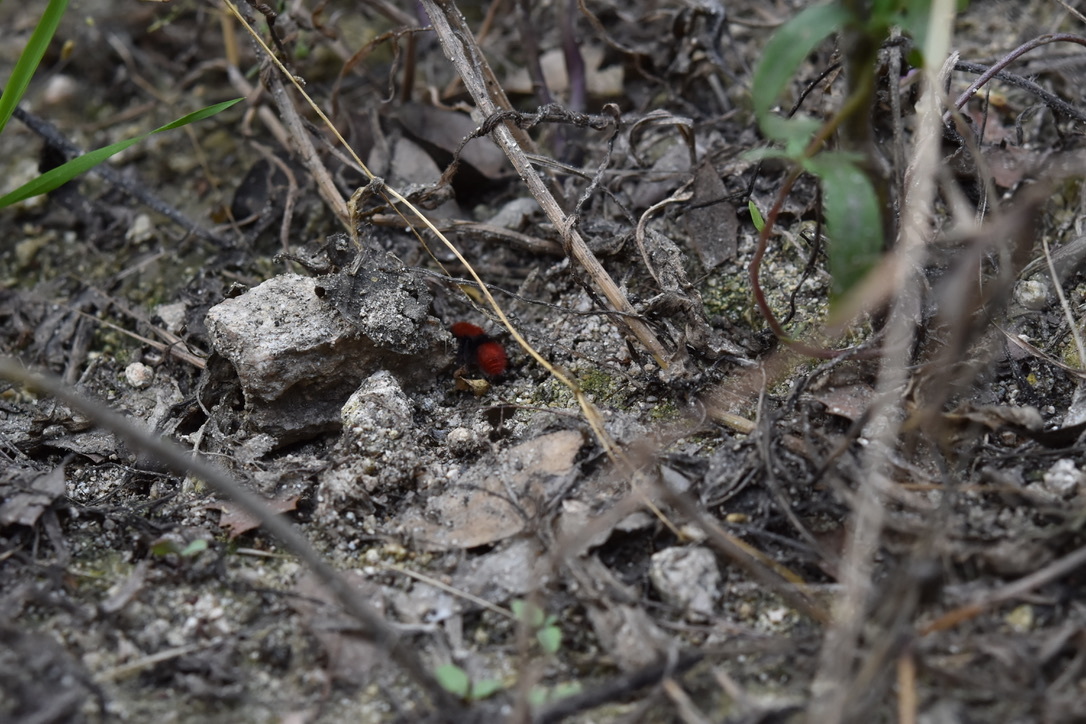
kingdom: Animalia
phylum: Arthropoda
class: Insecta
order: Hymenoptera
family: Mutillidae
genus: Dasymutilla
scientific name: Dasymutilla
